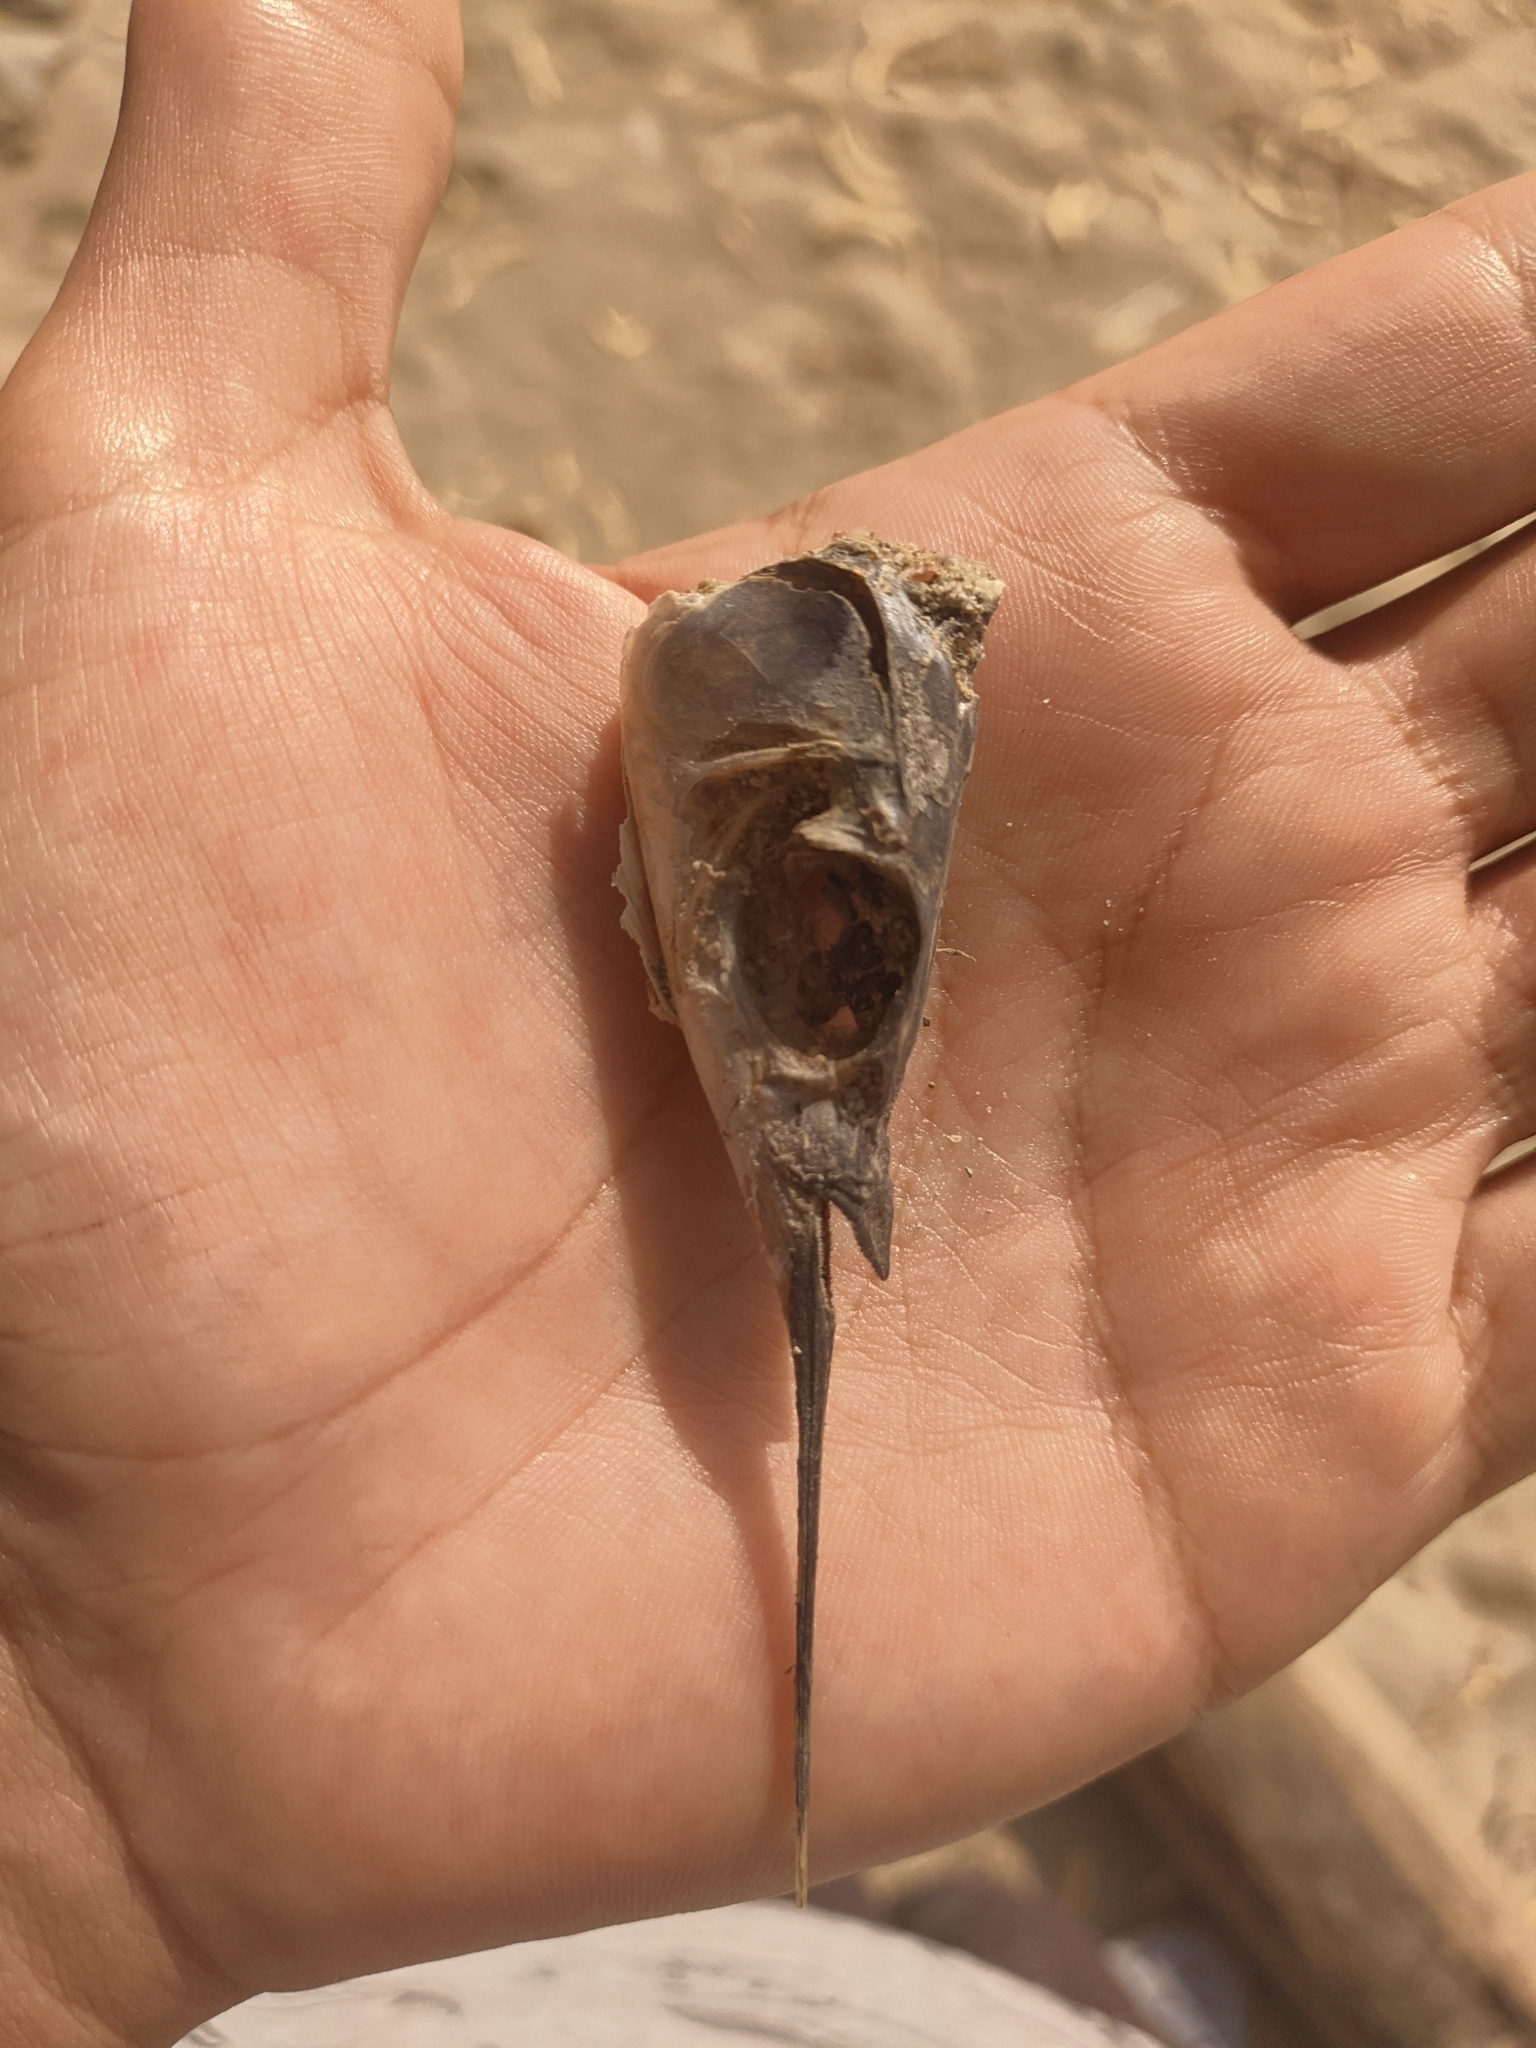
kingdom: Animalia
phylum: Chordata
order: Beloniformes
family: Hemiramphidae
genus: Hemiramphus
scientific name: Hemiramphus brasiliensis
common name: Ballyhoo
